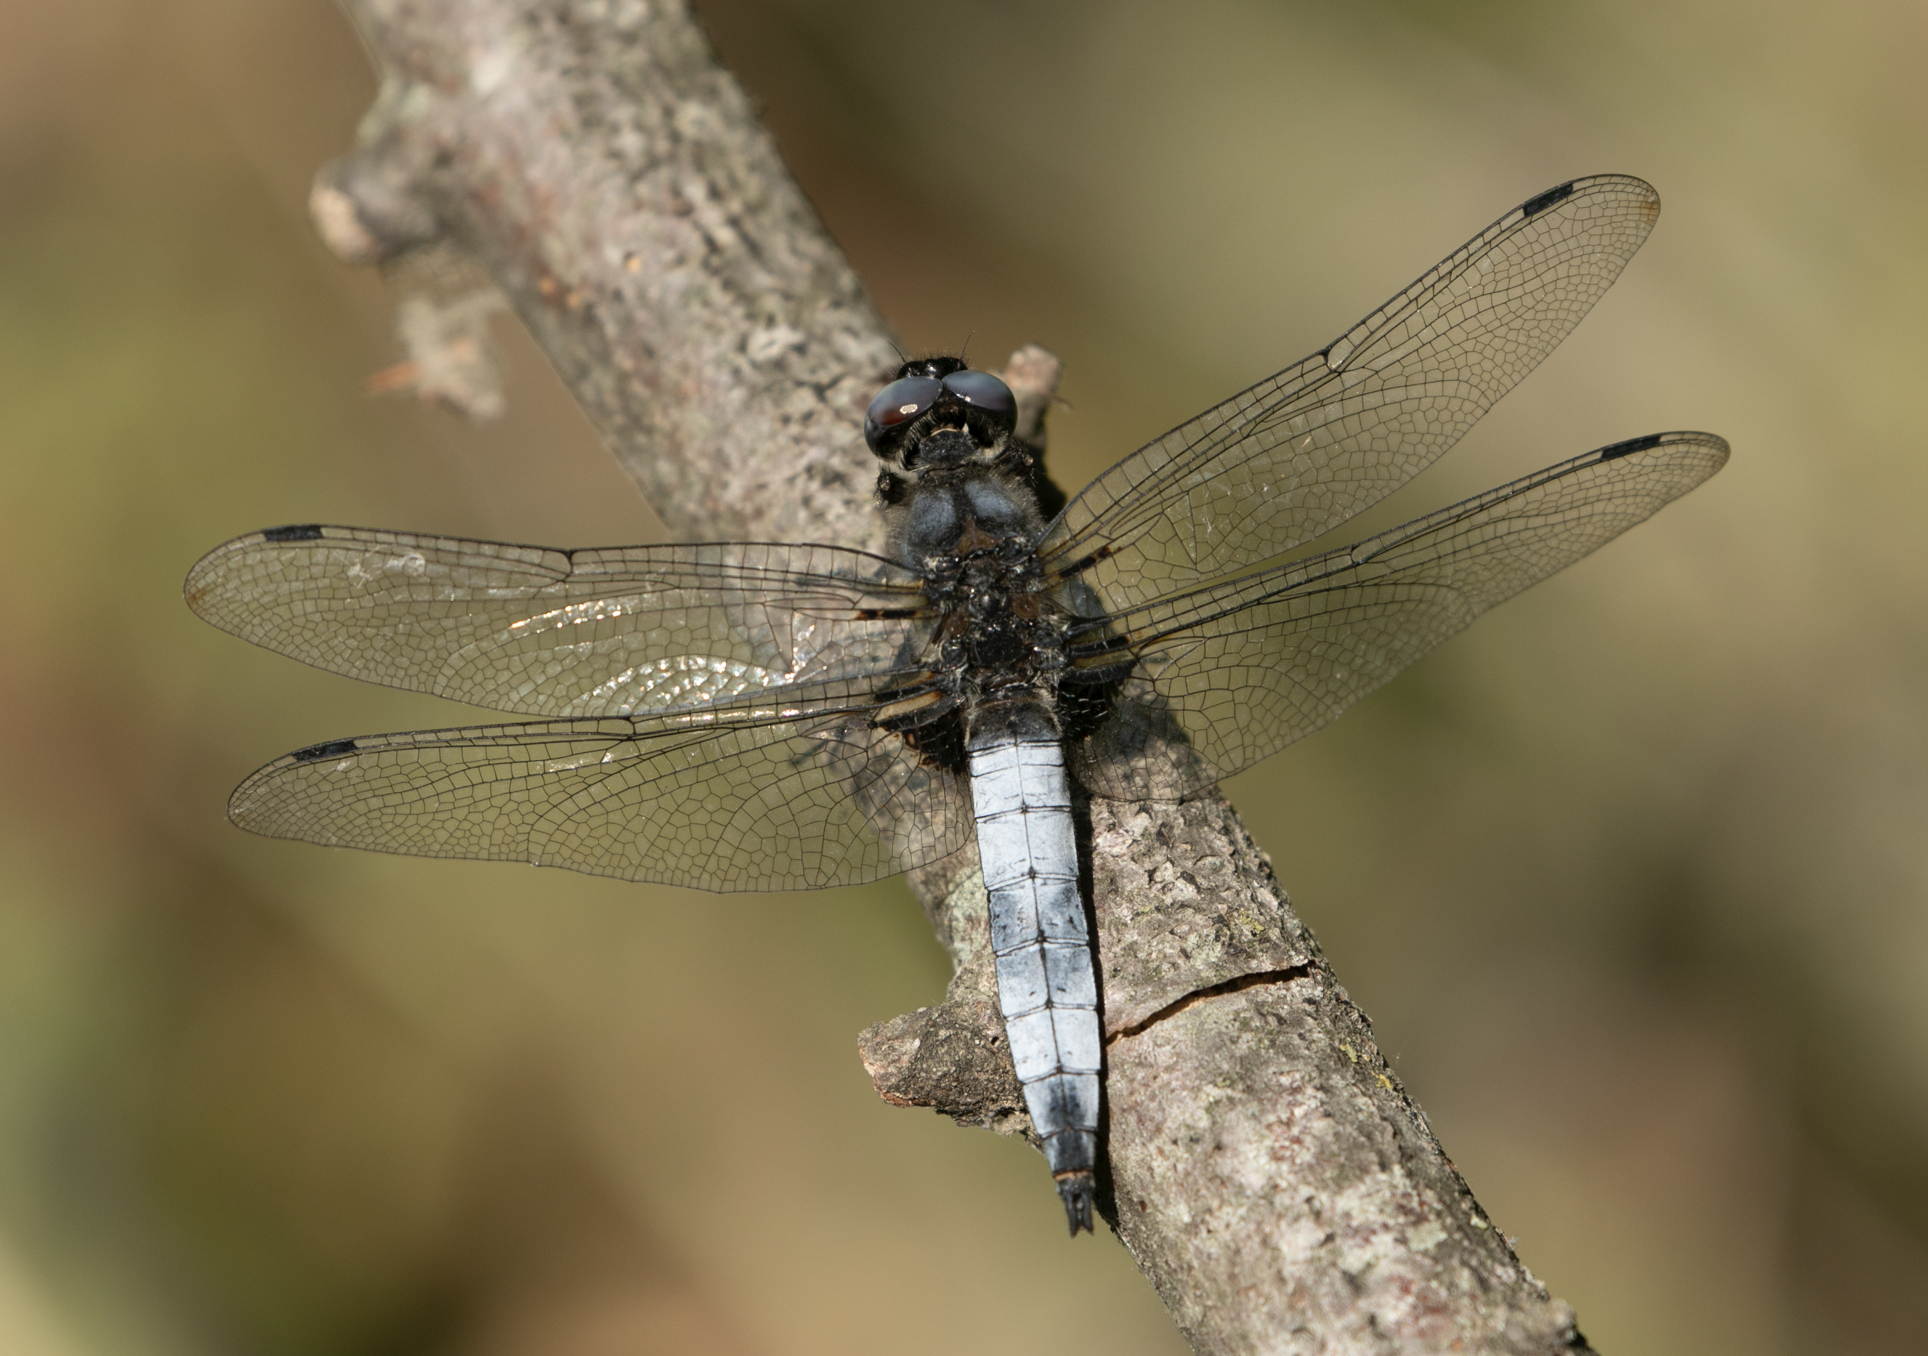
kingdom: Animalia
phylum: Arthropoda
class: Insecta
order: Odonata
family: Libellulidae
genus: Libellula
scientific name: Libellula fulva
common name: Blue chaser
